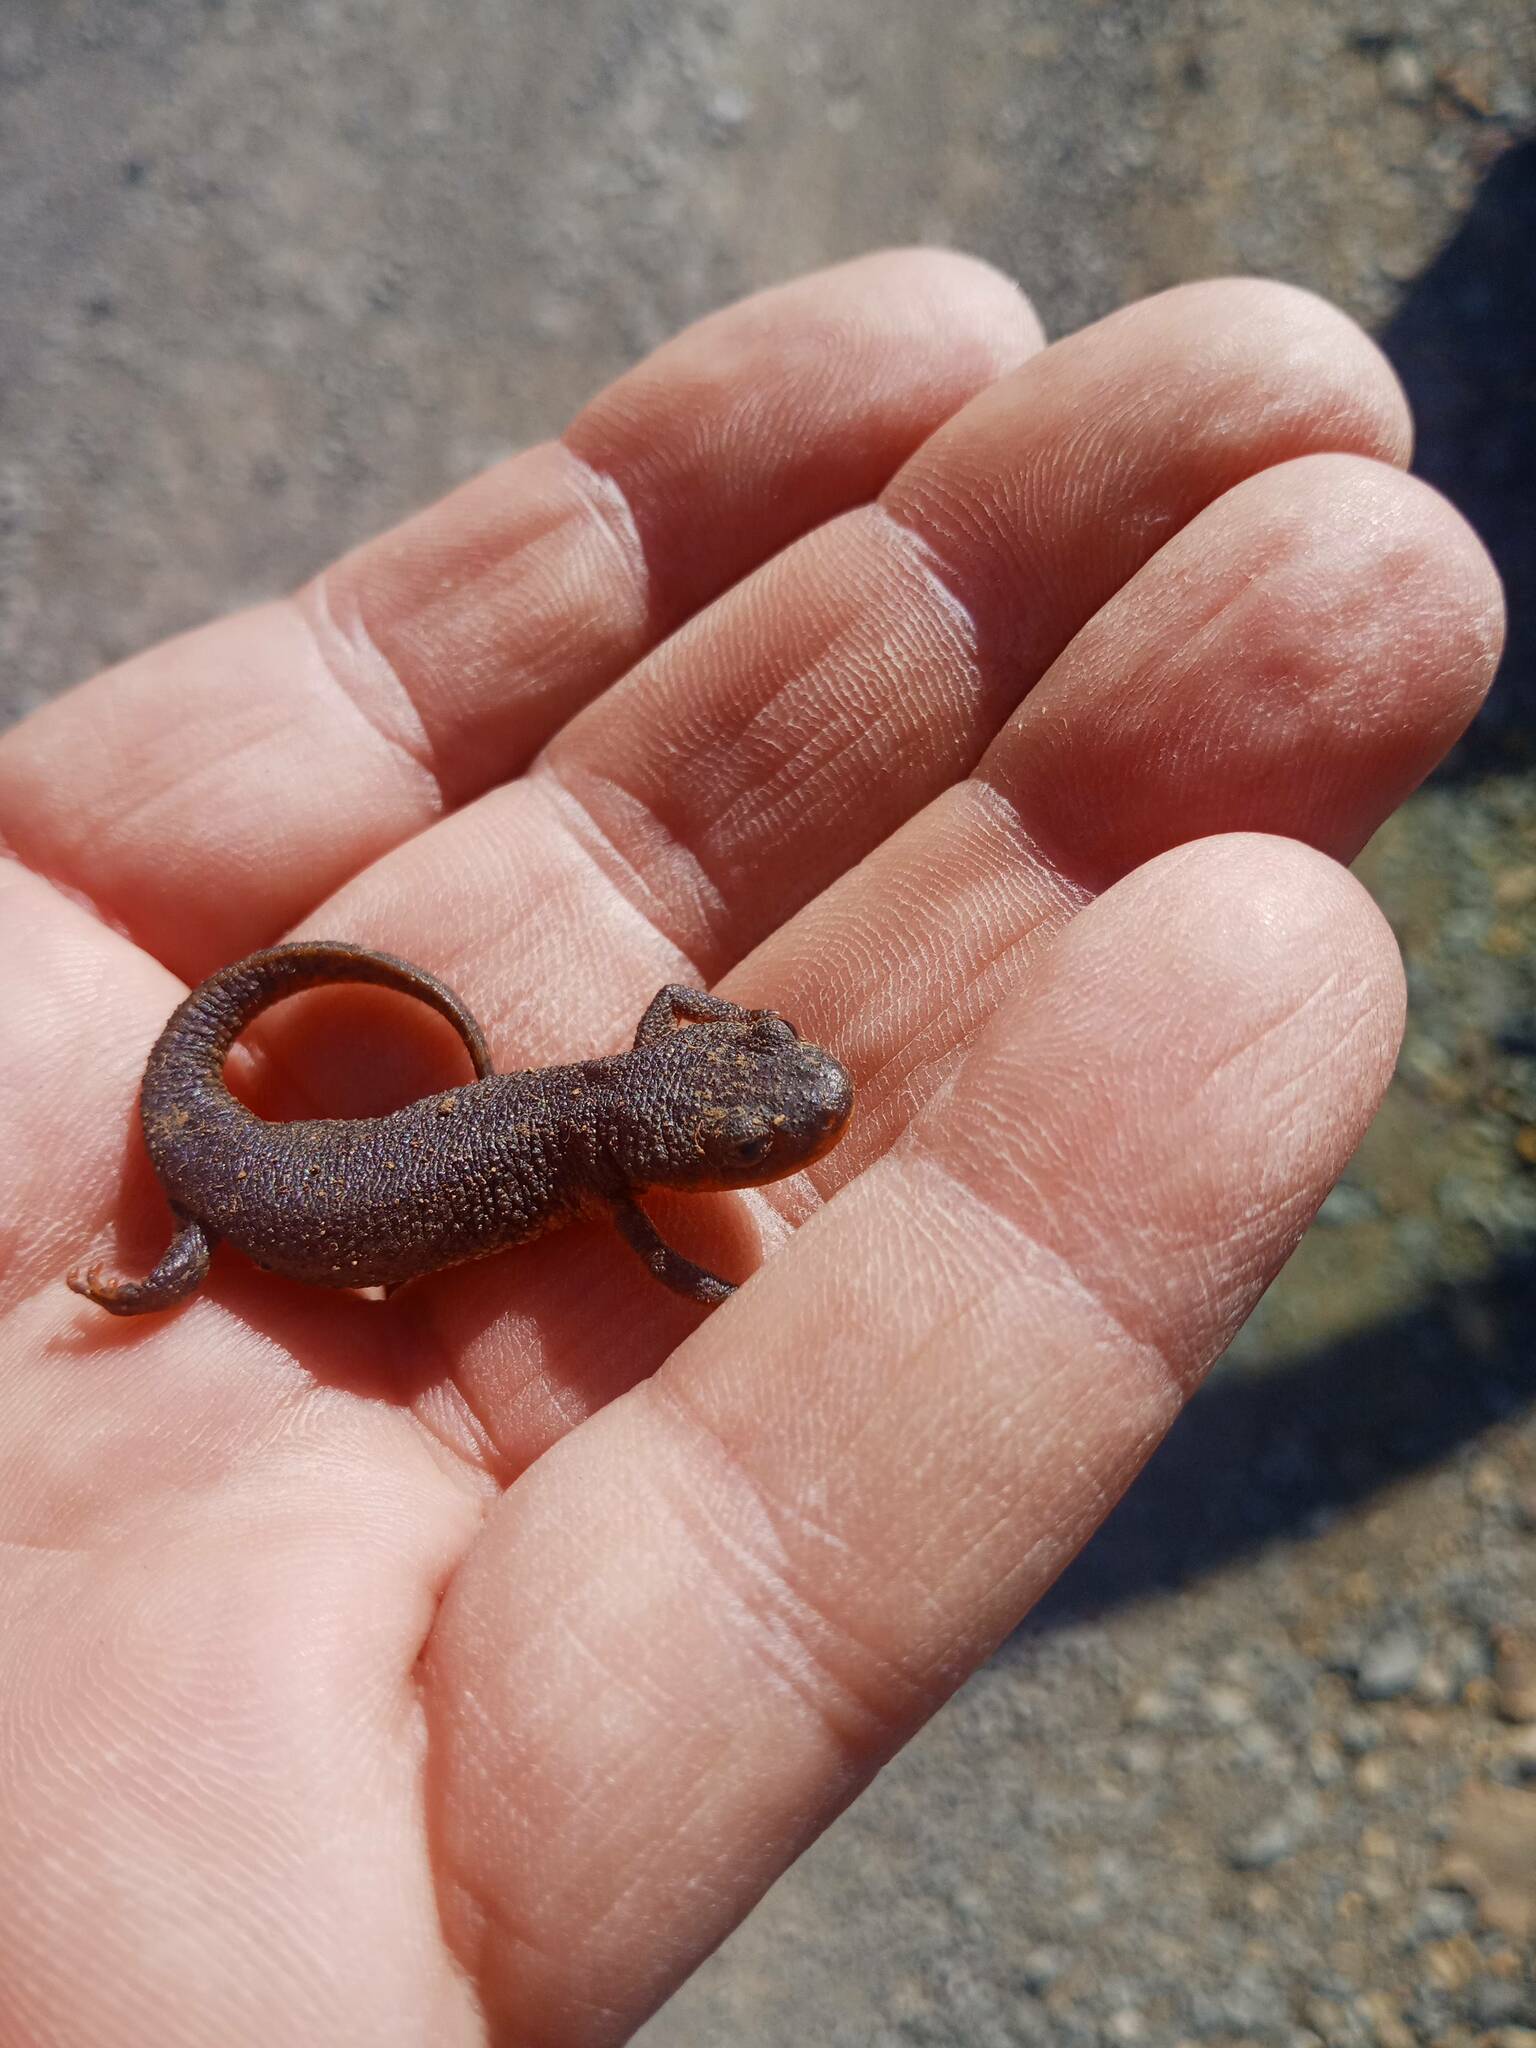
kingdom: Animalia
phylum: Chordata
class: Amphibia
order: Caudata
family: Salamandridae
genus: Pleurodeles
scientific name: Pleurodeles nebulosus
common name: Algerian ribbed newt
